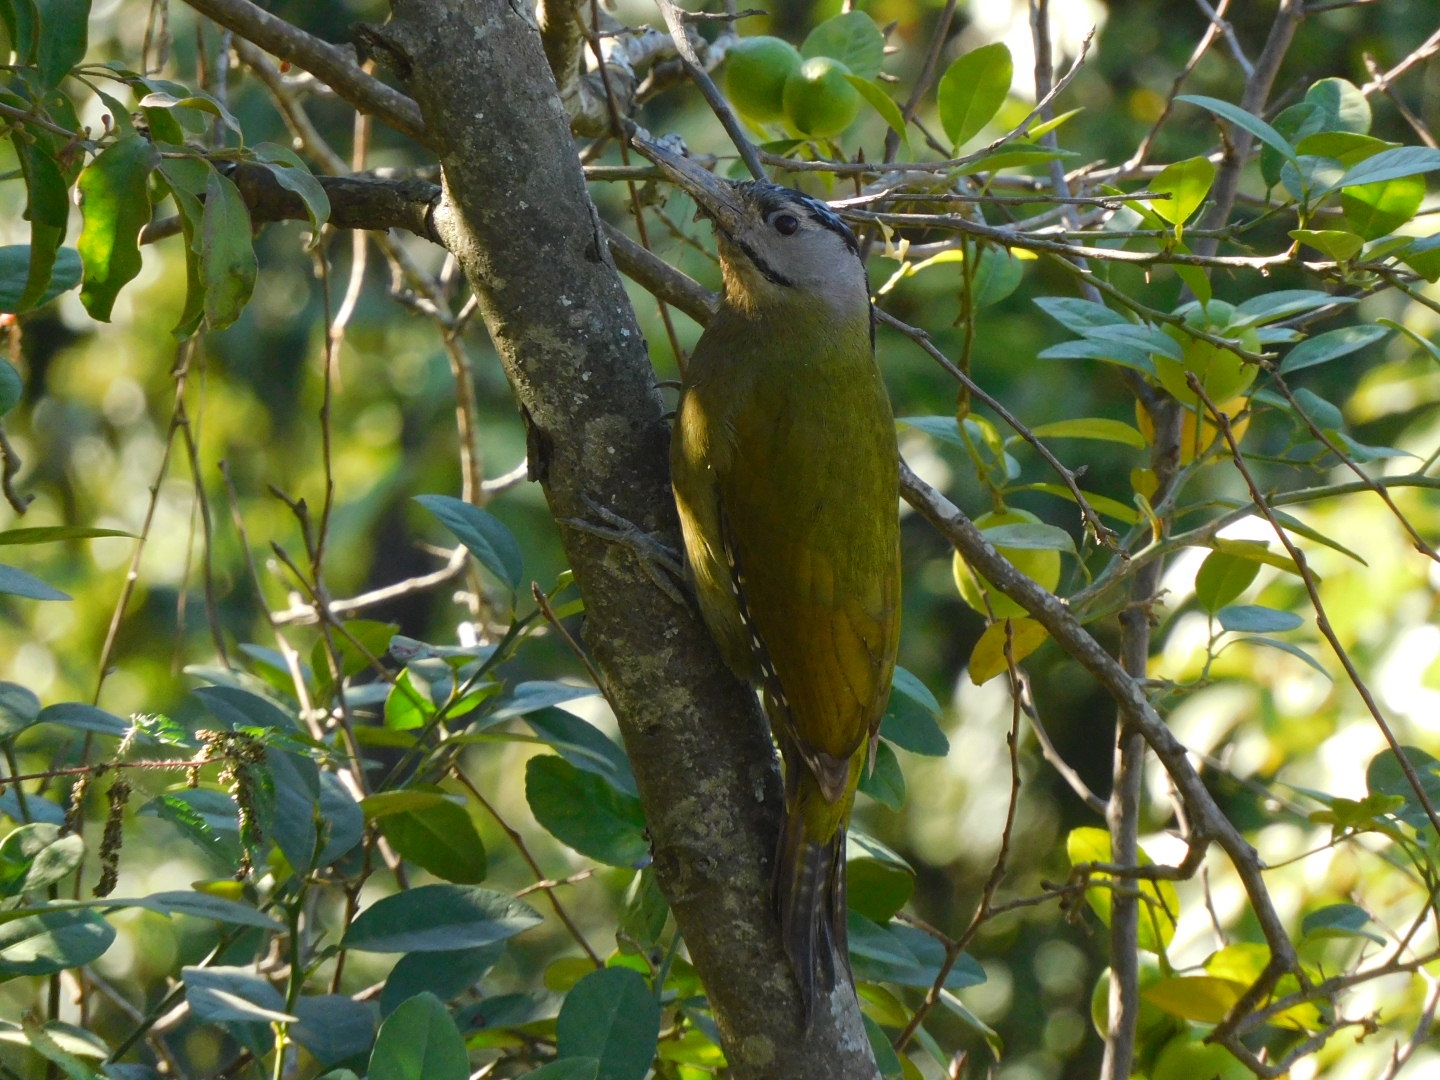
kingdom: Animalia
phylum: Chordata
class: Aves
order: Piciformes
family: Picidae
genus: Picus
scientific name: Picus canus
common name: Grey-headed woodpecker
